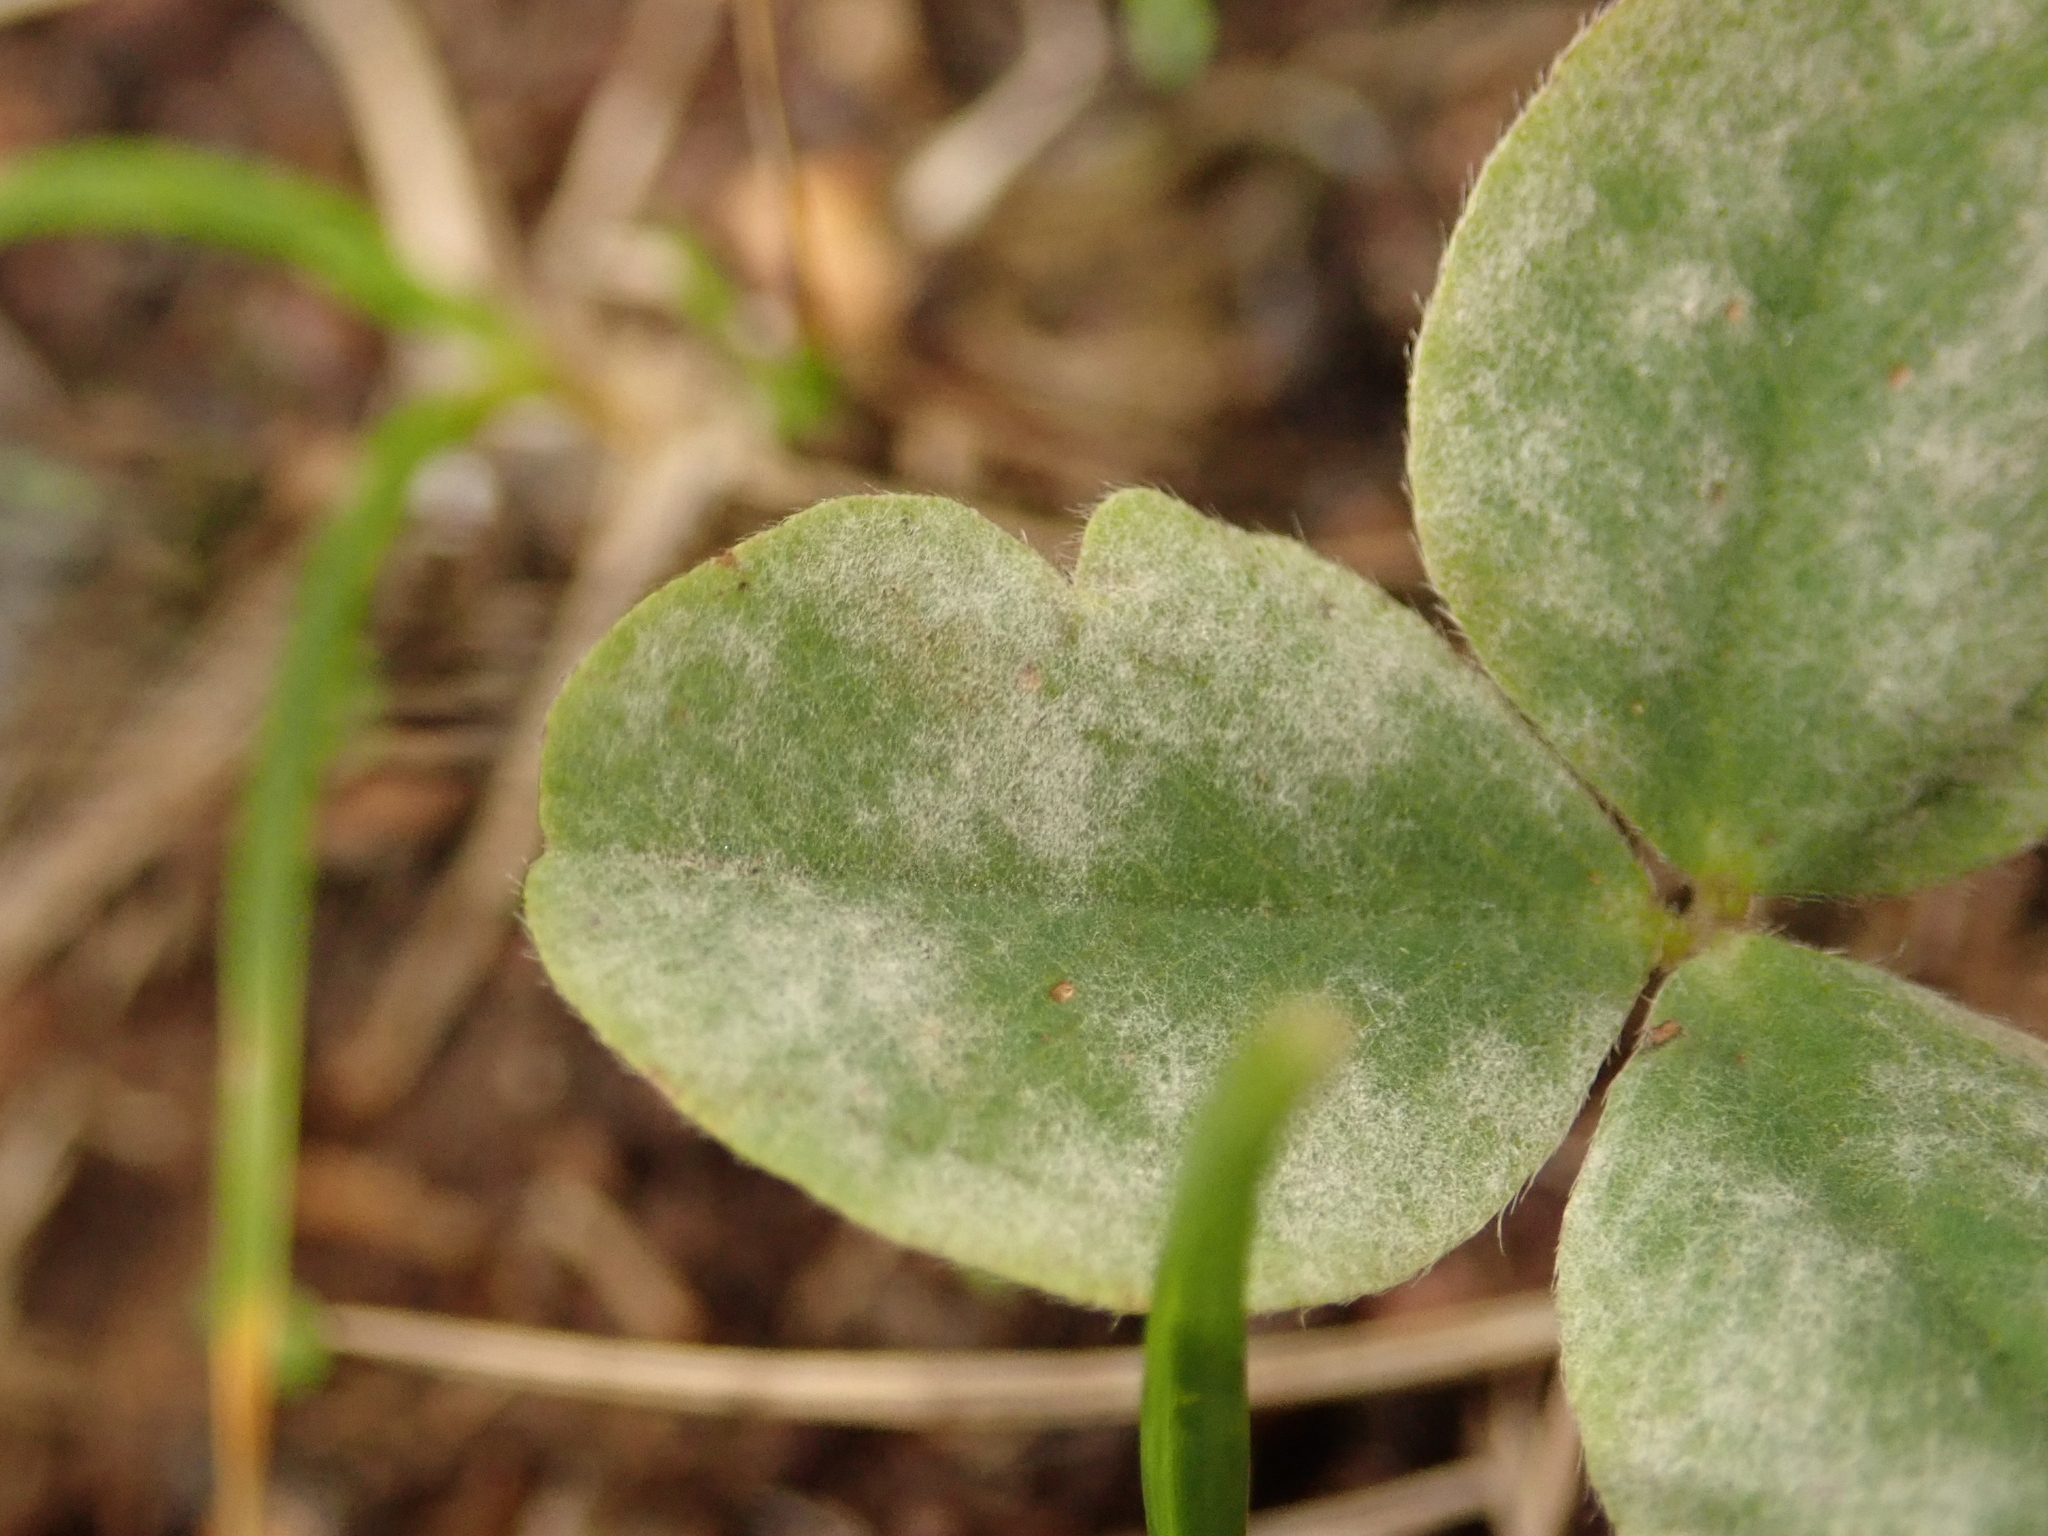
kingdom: Fungi
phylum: Ascomycota
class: Leotiomycetes
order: Helotiales
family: Erysiphaceae
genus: Erysiphe
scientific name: Erysiphe trifoliorum
